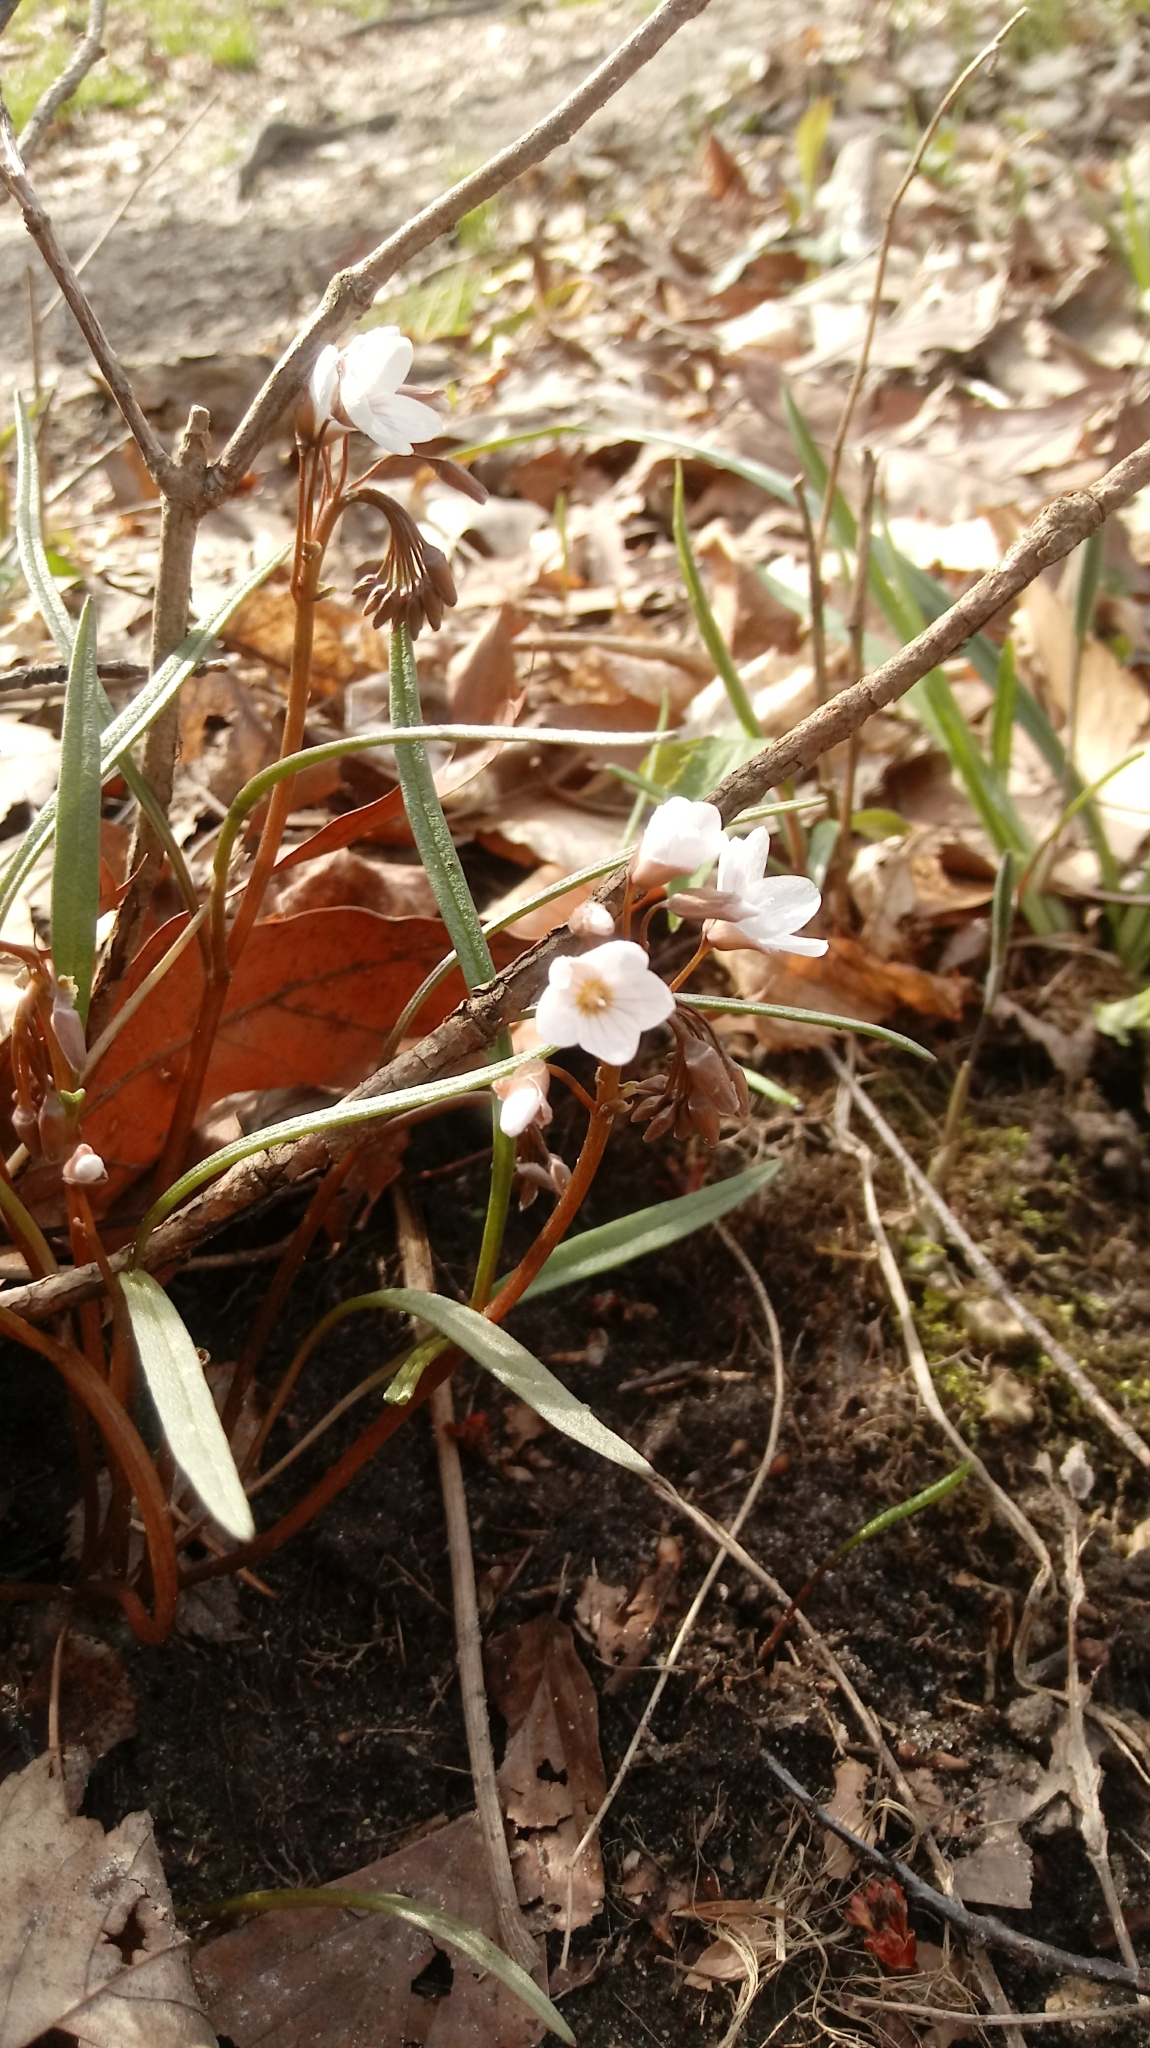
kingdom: Plantae
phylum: Tracheophyta
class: Magnoliopsida
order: Caryophyllales
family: Montiaceae
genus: Claytonia
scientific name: Claytonia virginica
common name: Virginia springbeauty
